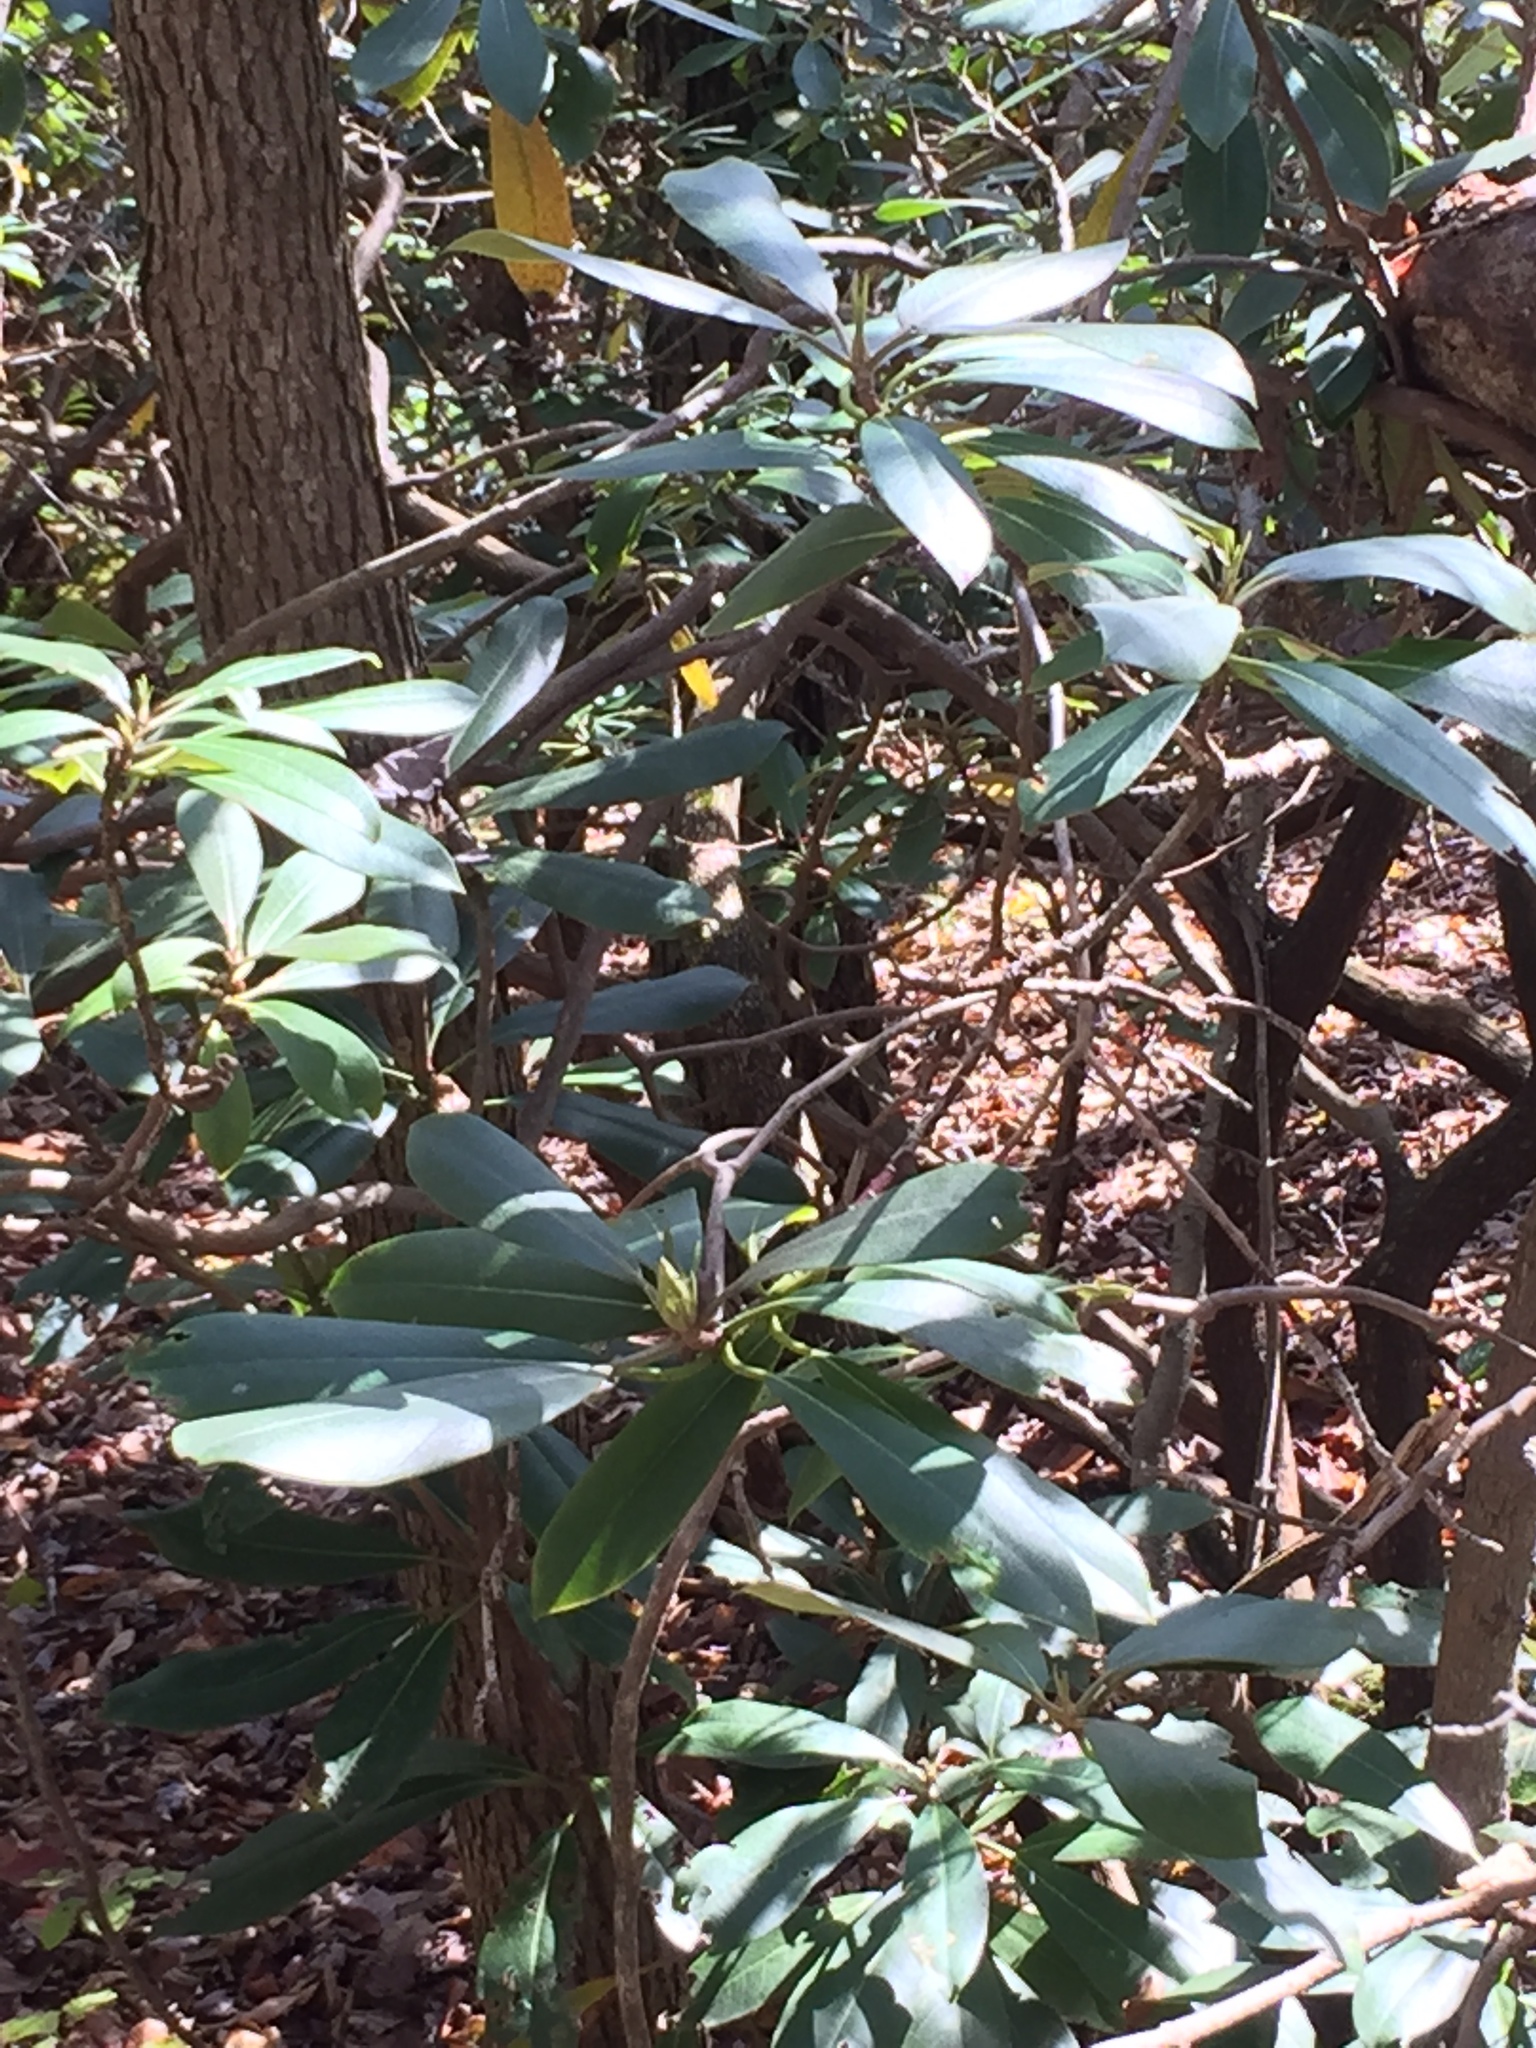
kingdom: Plantae
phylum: Tracheophyta
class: Magnoliopsida
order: Ericales
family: Ericaceae
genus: Rhododendron
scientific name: Rhododendron maximum
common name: Great rhododendron
